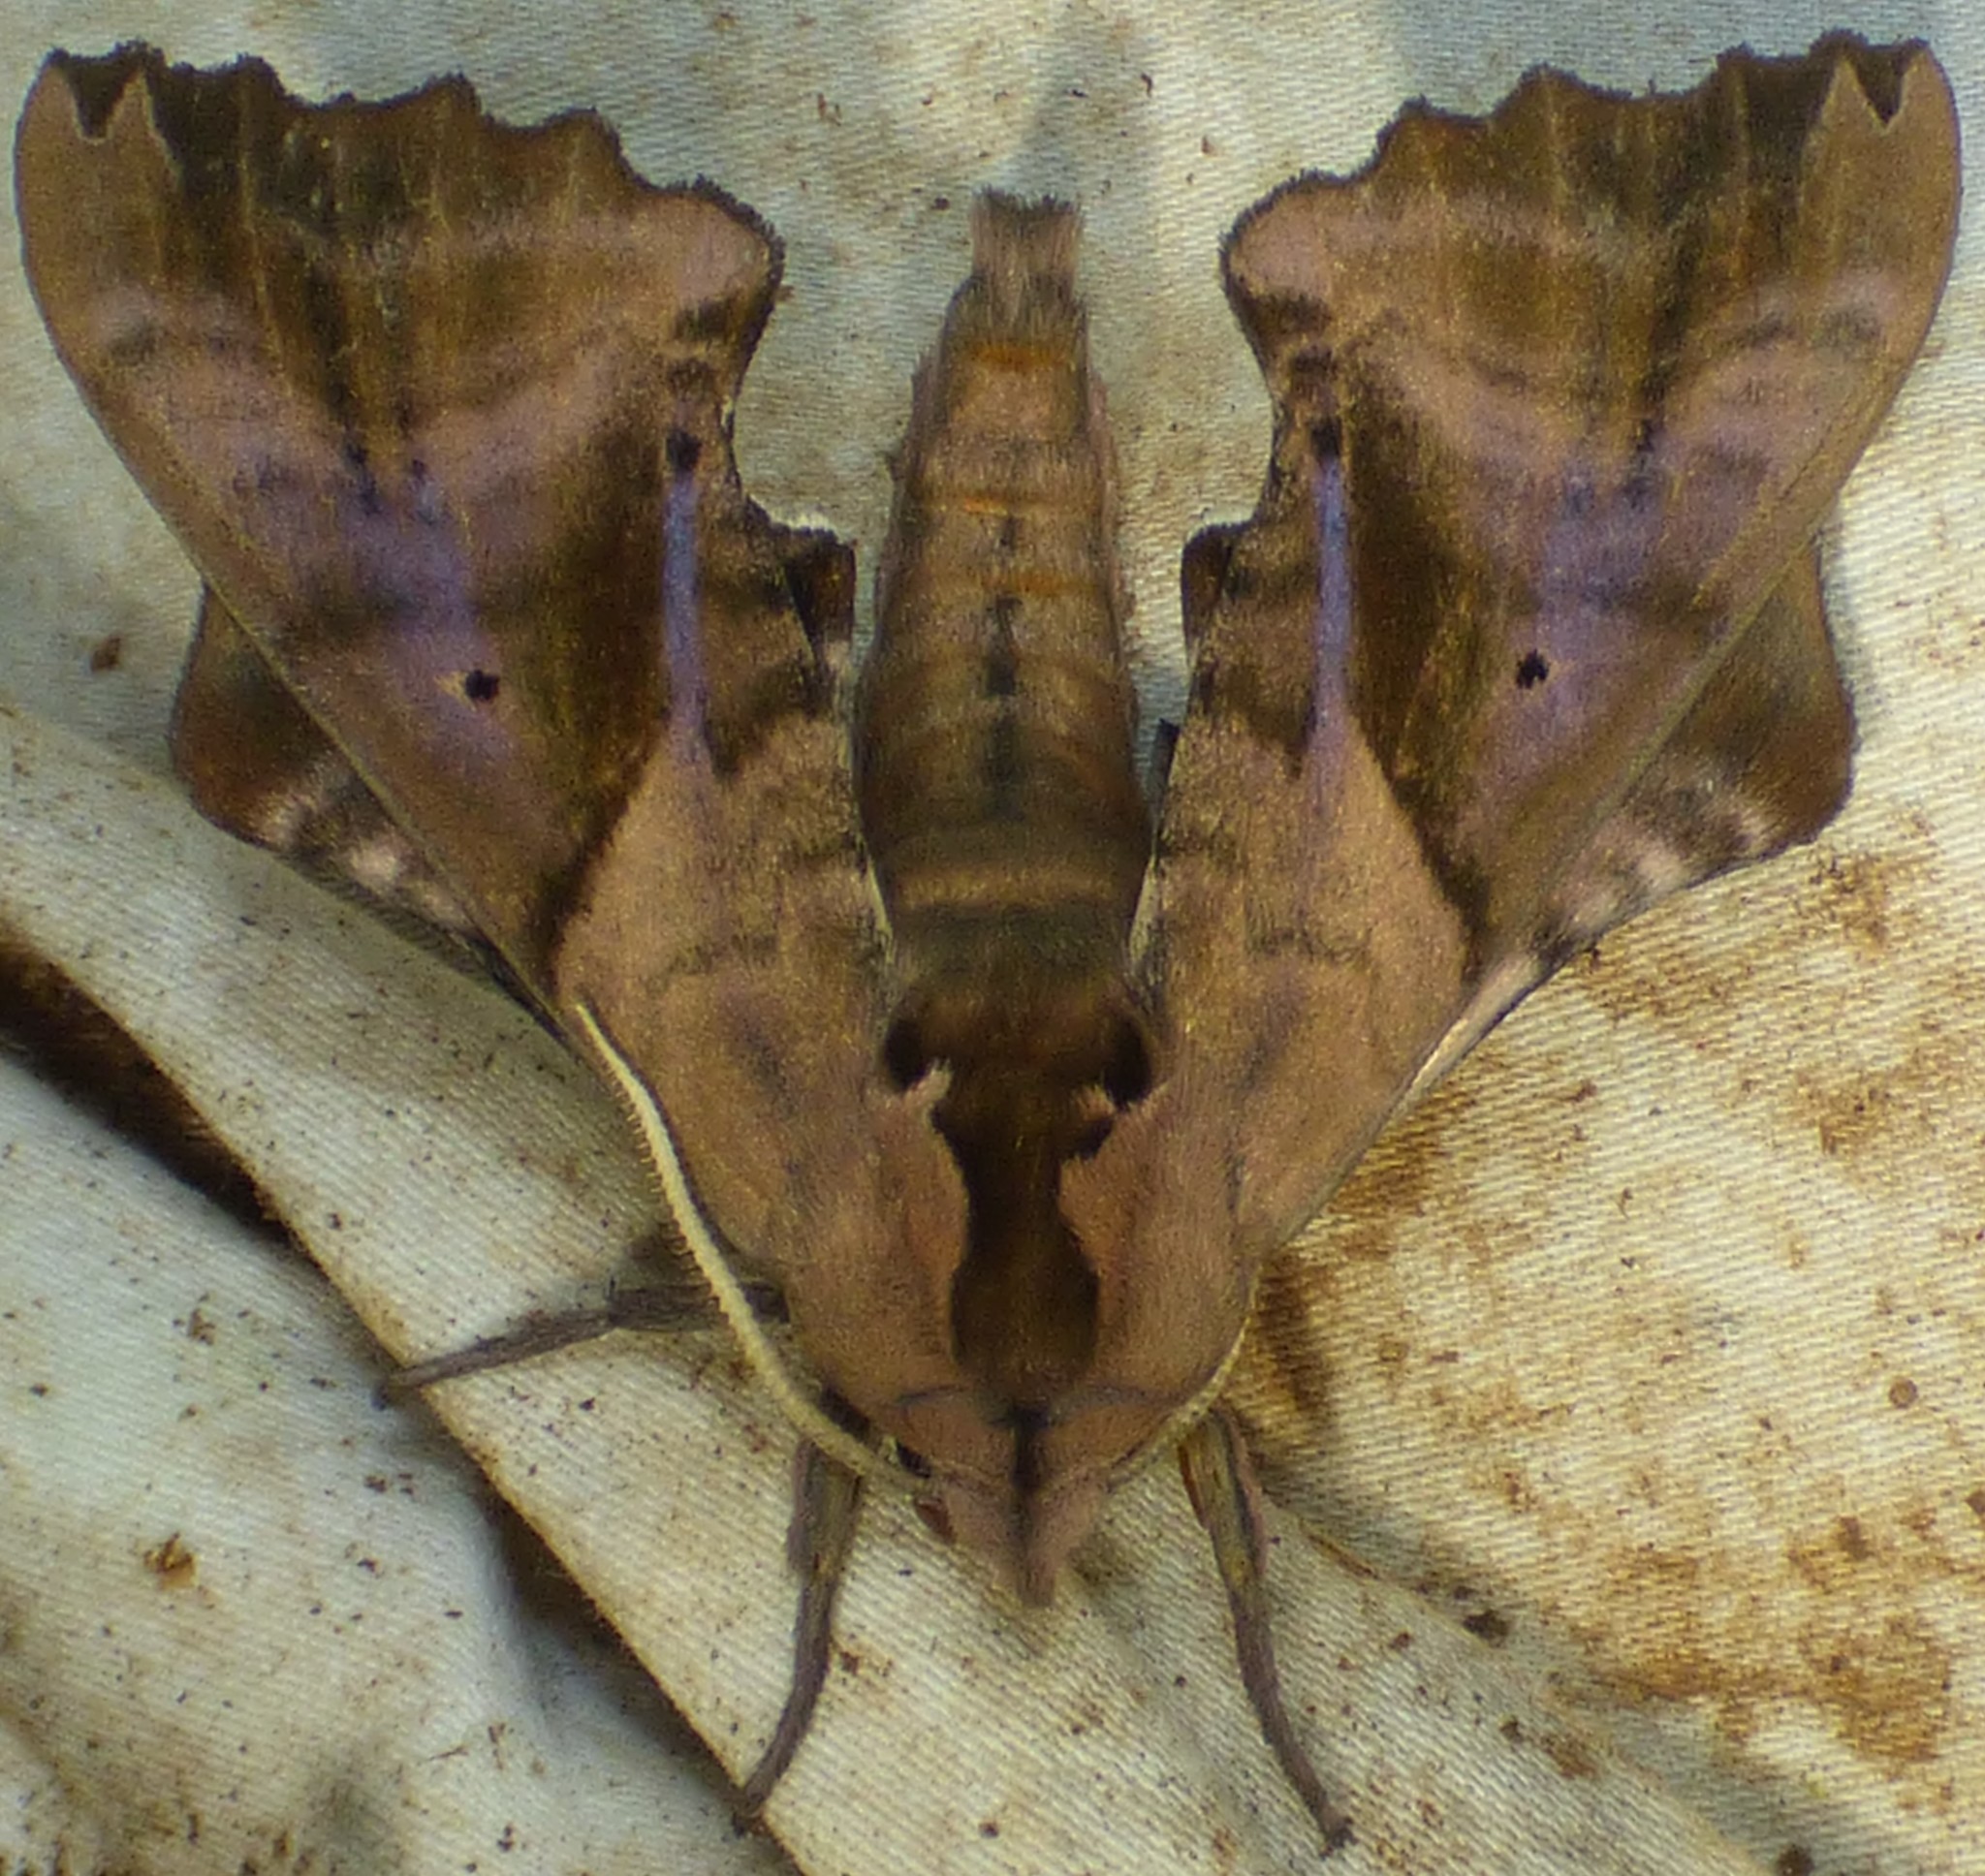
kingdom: Animalia
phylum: Arthropoda
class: Insecta
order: Lepidoptera
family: Sphingidae
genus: Paonias
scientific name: Paonias excaecata
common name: Blind-eyed sphinx
